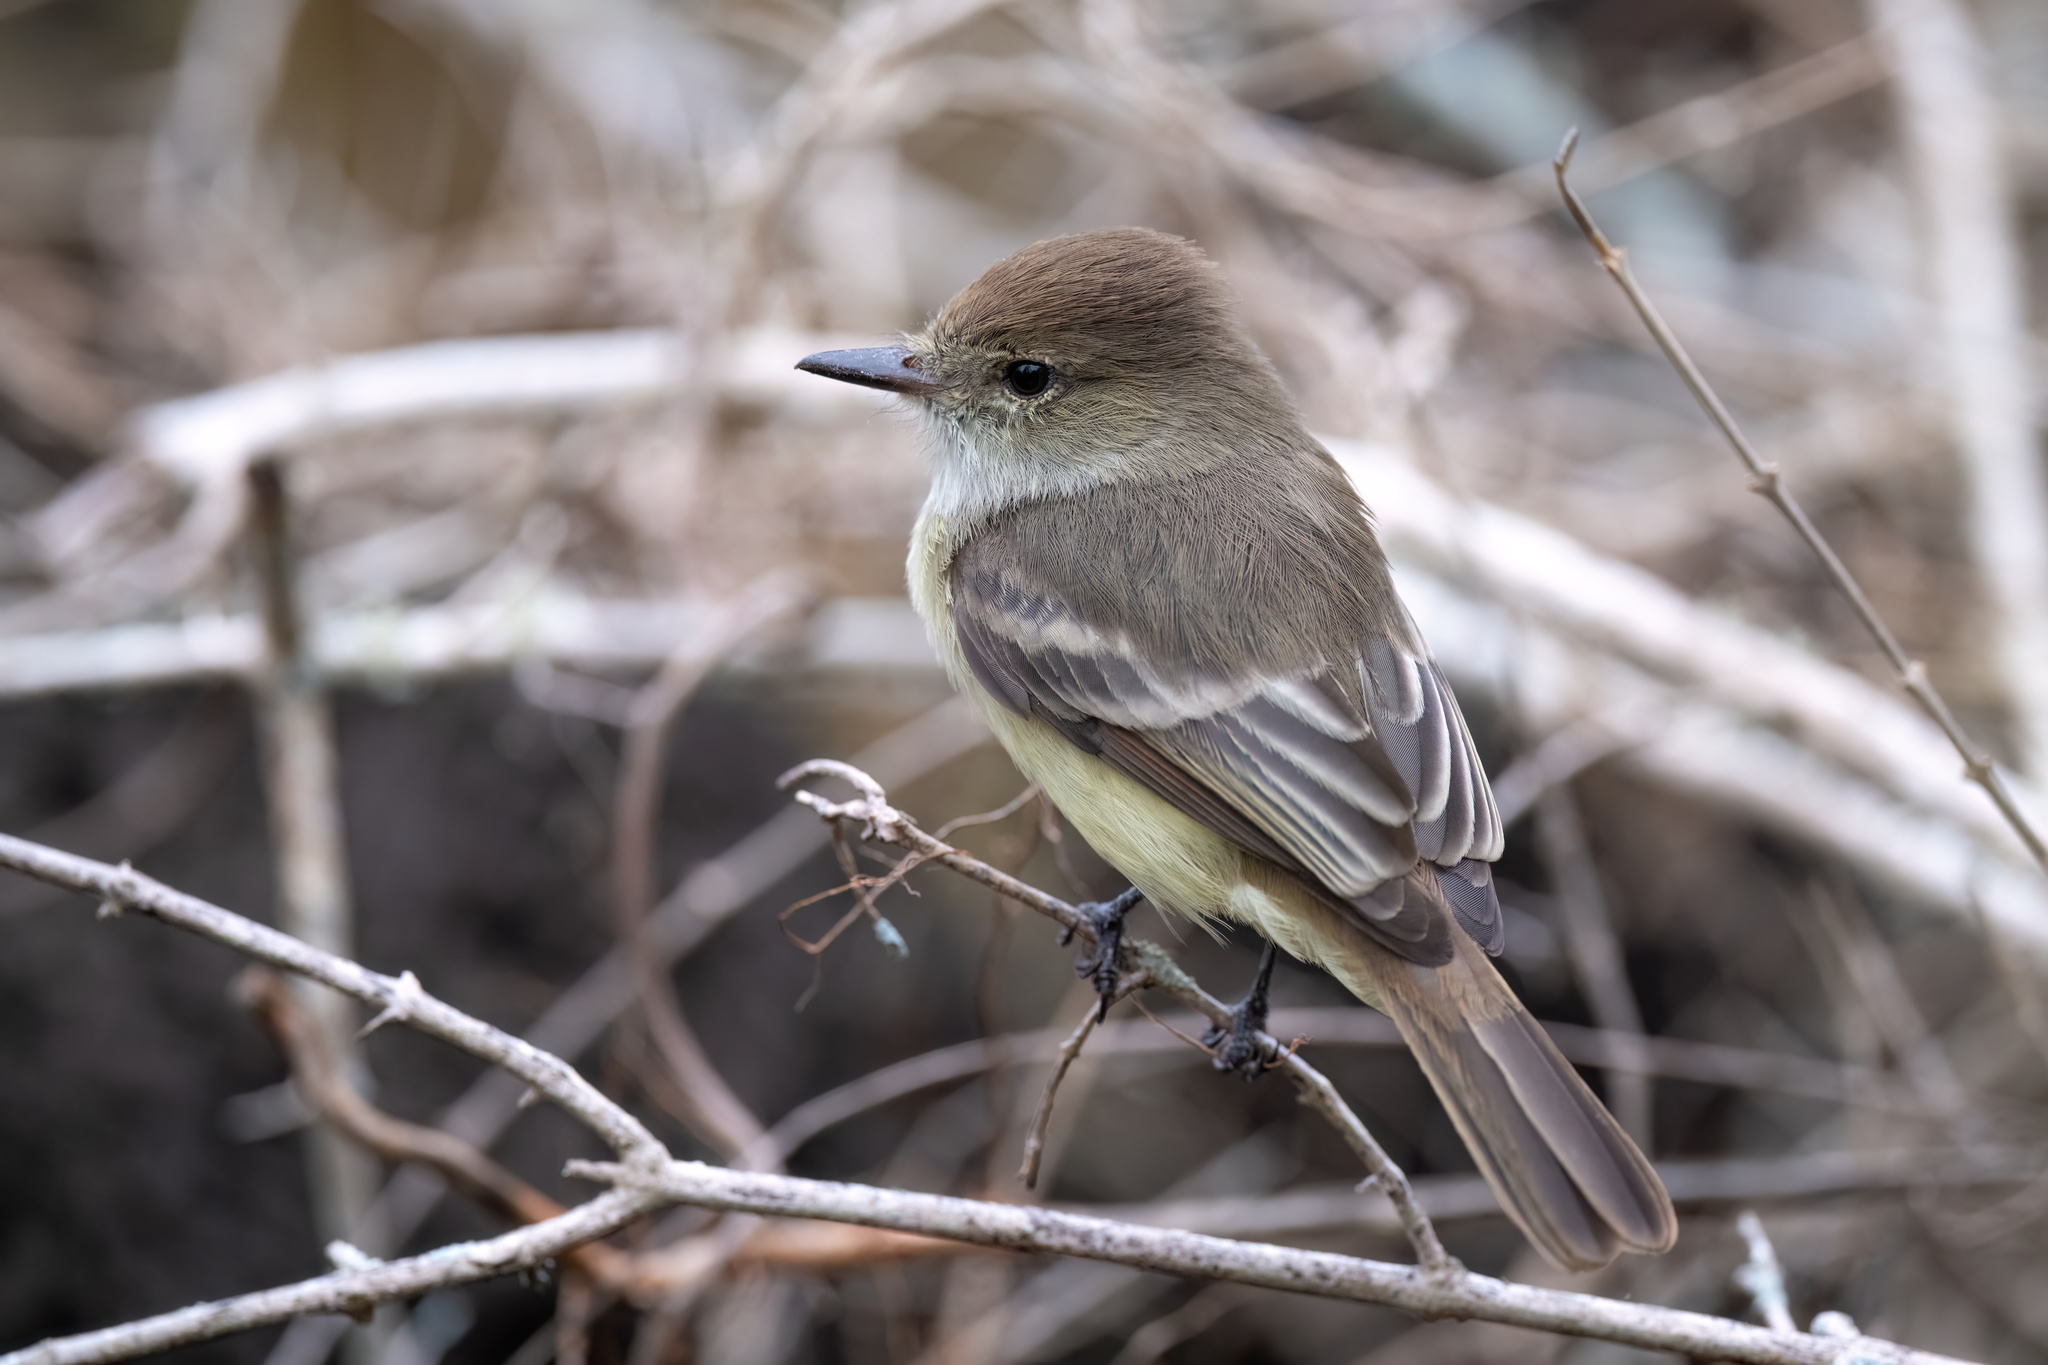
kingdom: Animalia
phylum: Chordata
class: Aves
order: Passeriformes
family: Tyrannidae
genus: Myiarchus
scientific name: Myiarchus magnirostris
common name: Galapagos flycatcher
